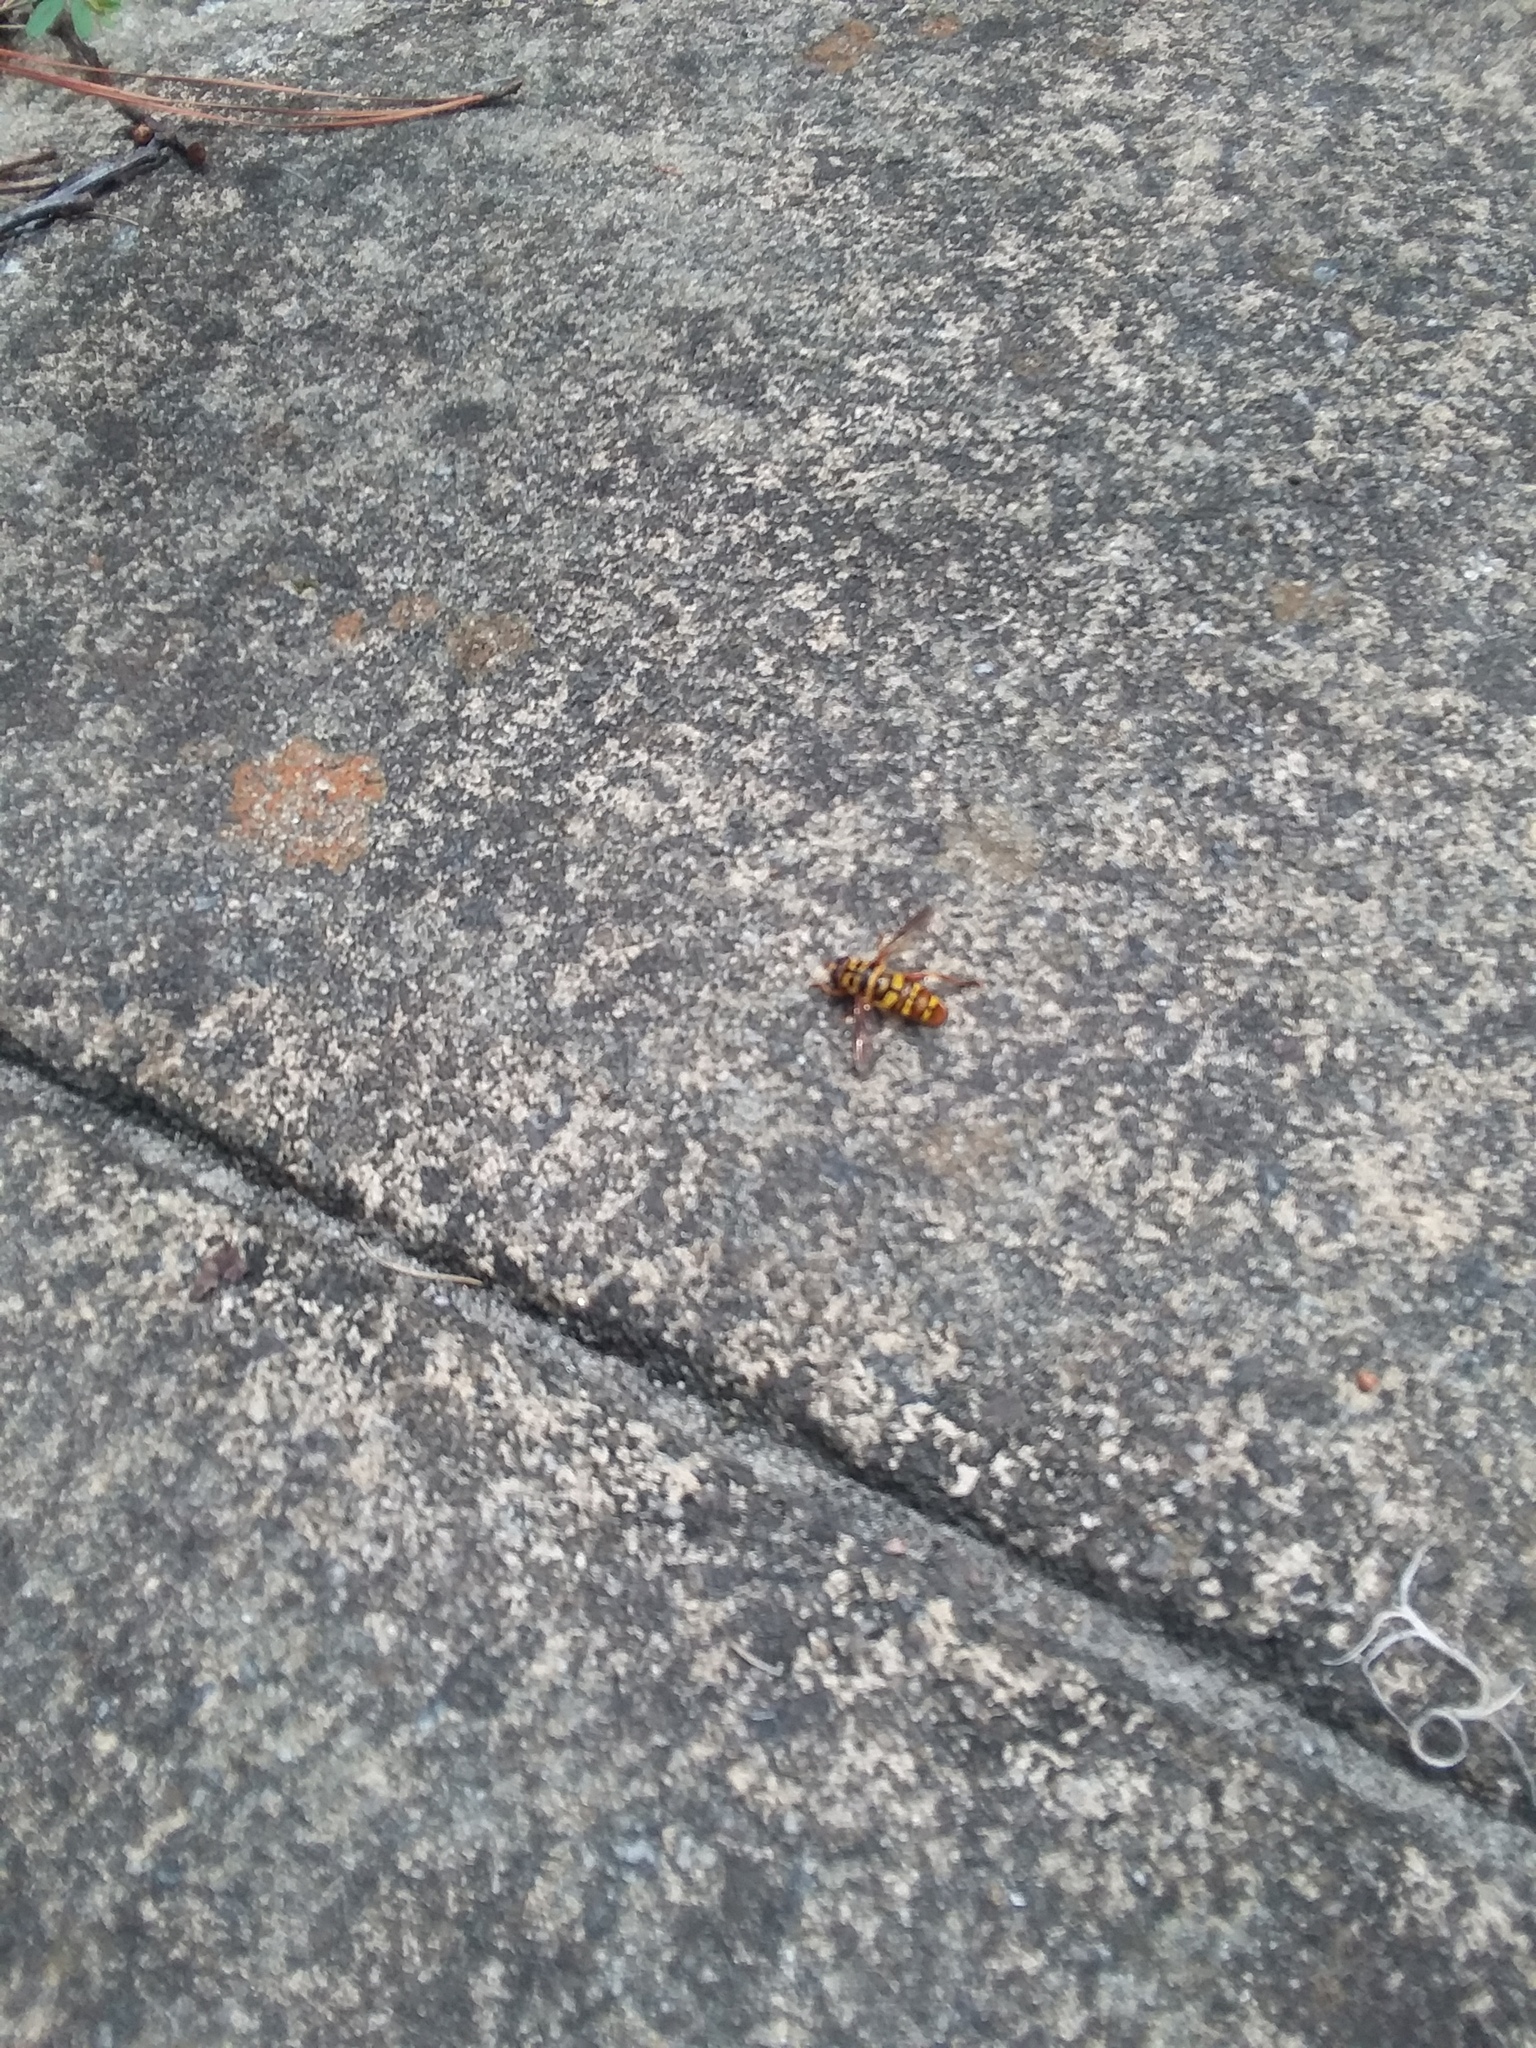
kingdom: Animalia
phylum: Arthropoda
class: Insecta
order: Diptera
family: Syrphidae
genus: Milesia
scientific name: Milesia virginiensis
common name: Virginia giant
